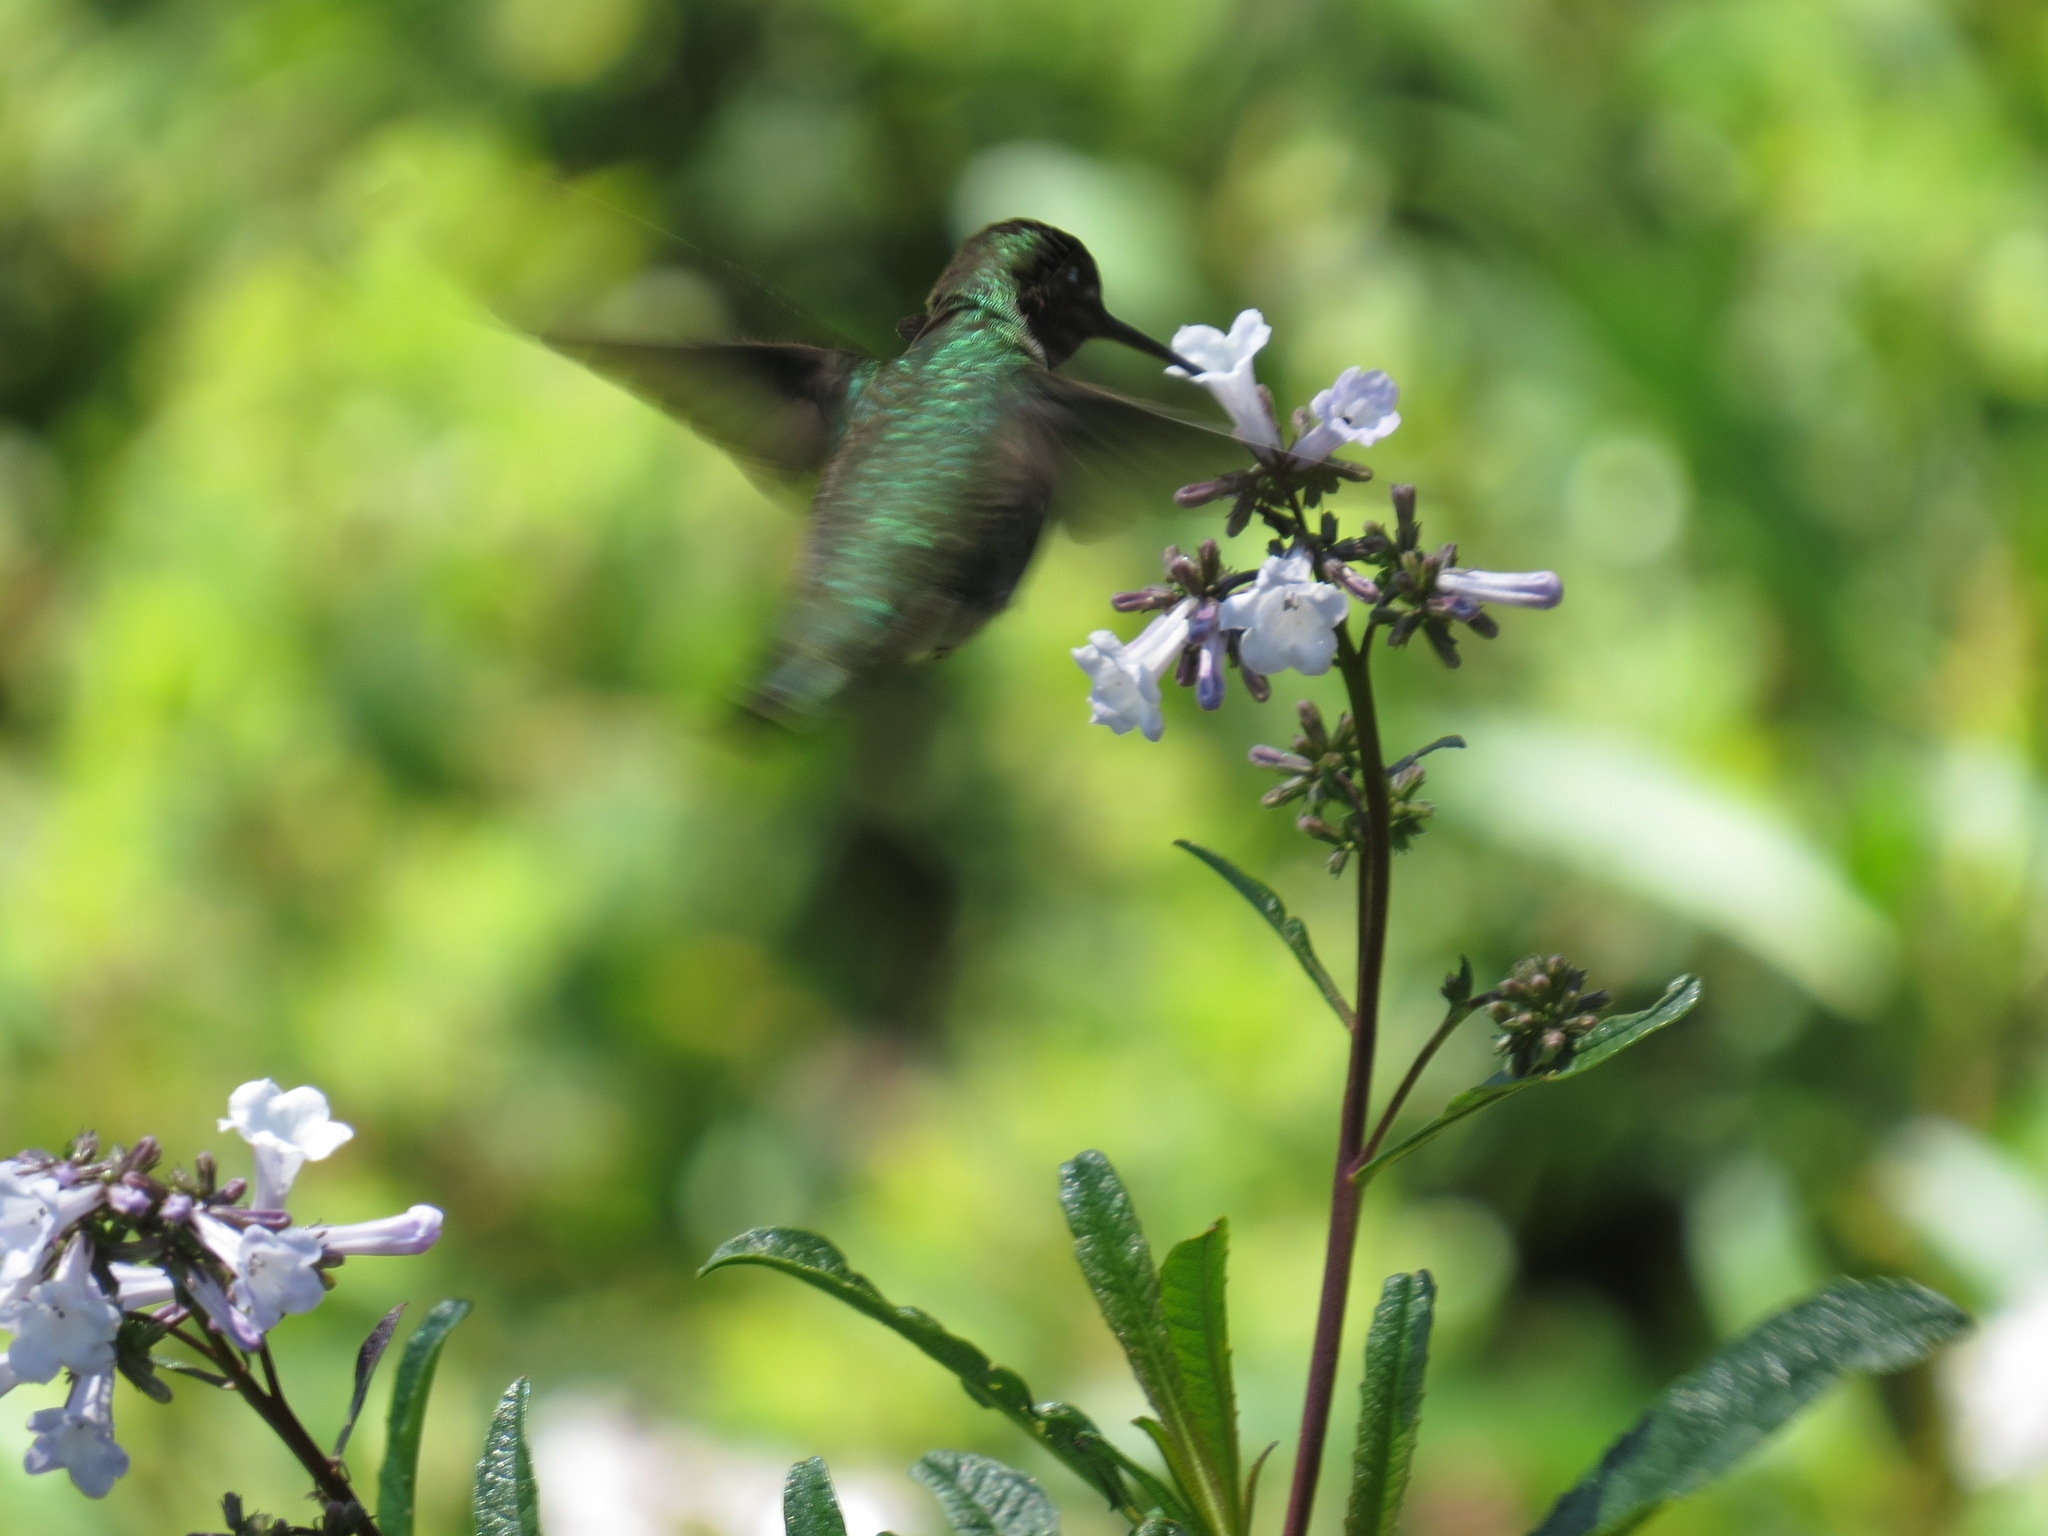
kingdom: Animalia
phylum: Chordata
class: Aves
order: Apodiformes
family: Trochilidae
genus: Calypte
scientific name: Calypte anna
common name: Anna's hummingbird
